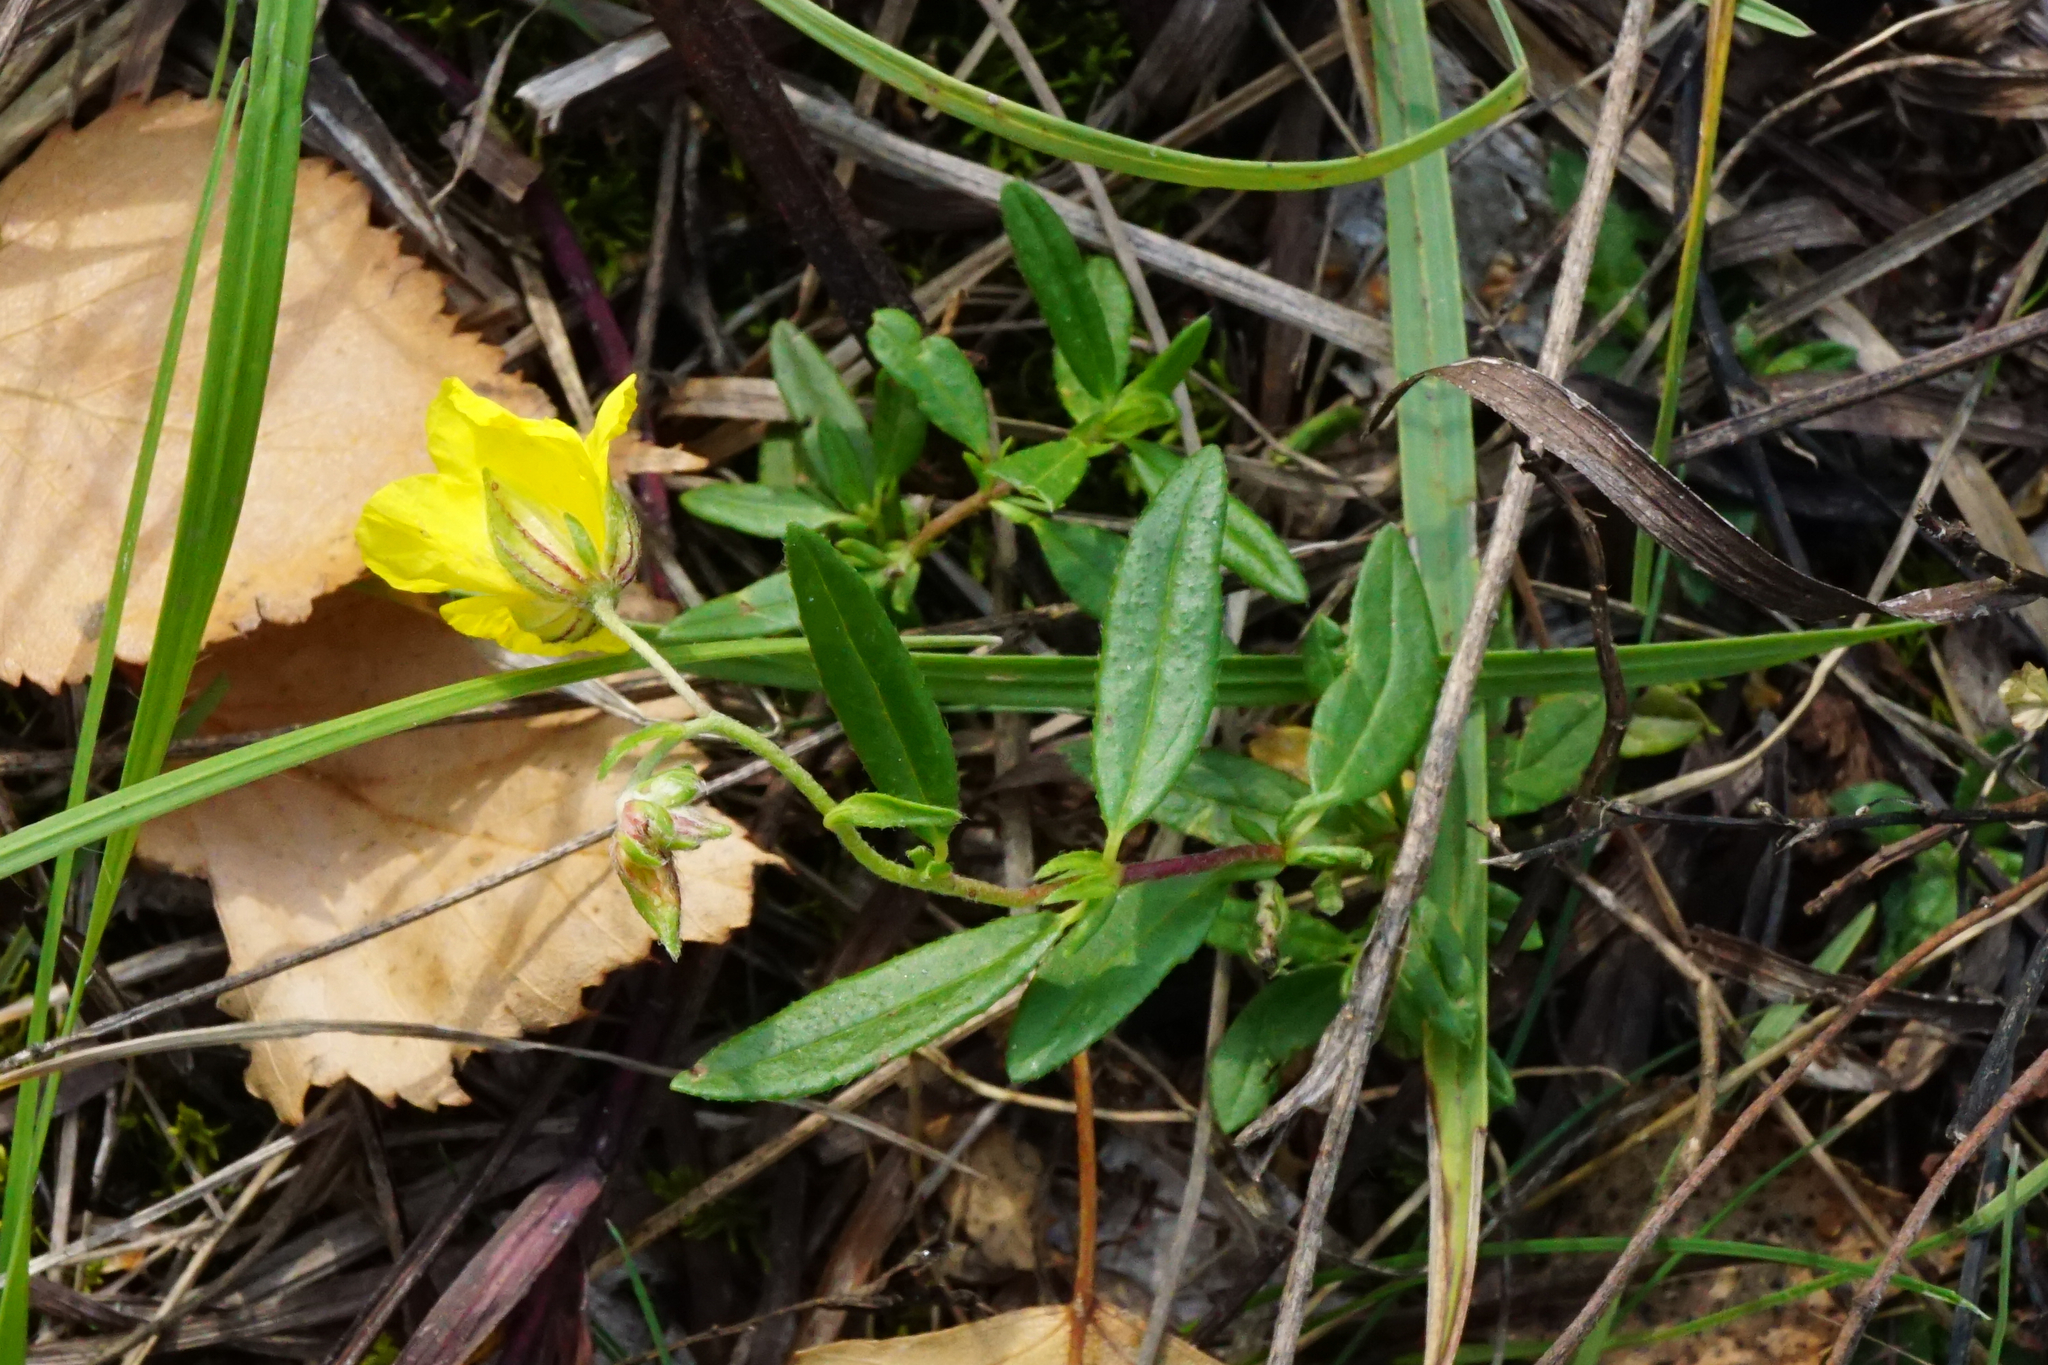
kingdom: Plantae
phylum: Tracheophyta
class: Magnoliopsida
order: Malvales
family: Cistaceae
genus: Helianthemum
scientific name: Helianthemum nummularium
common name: Common rock-rose
